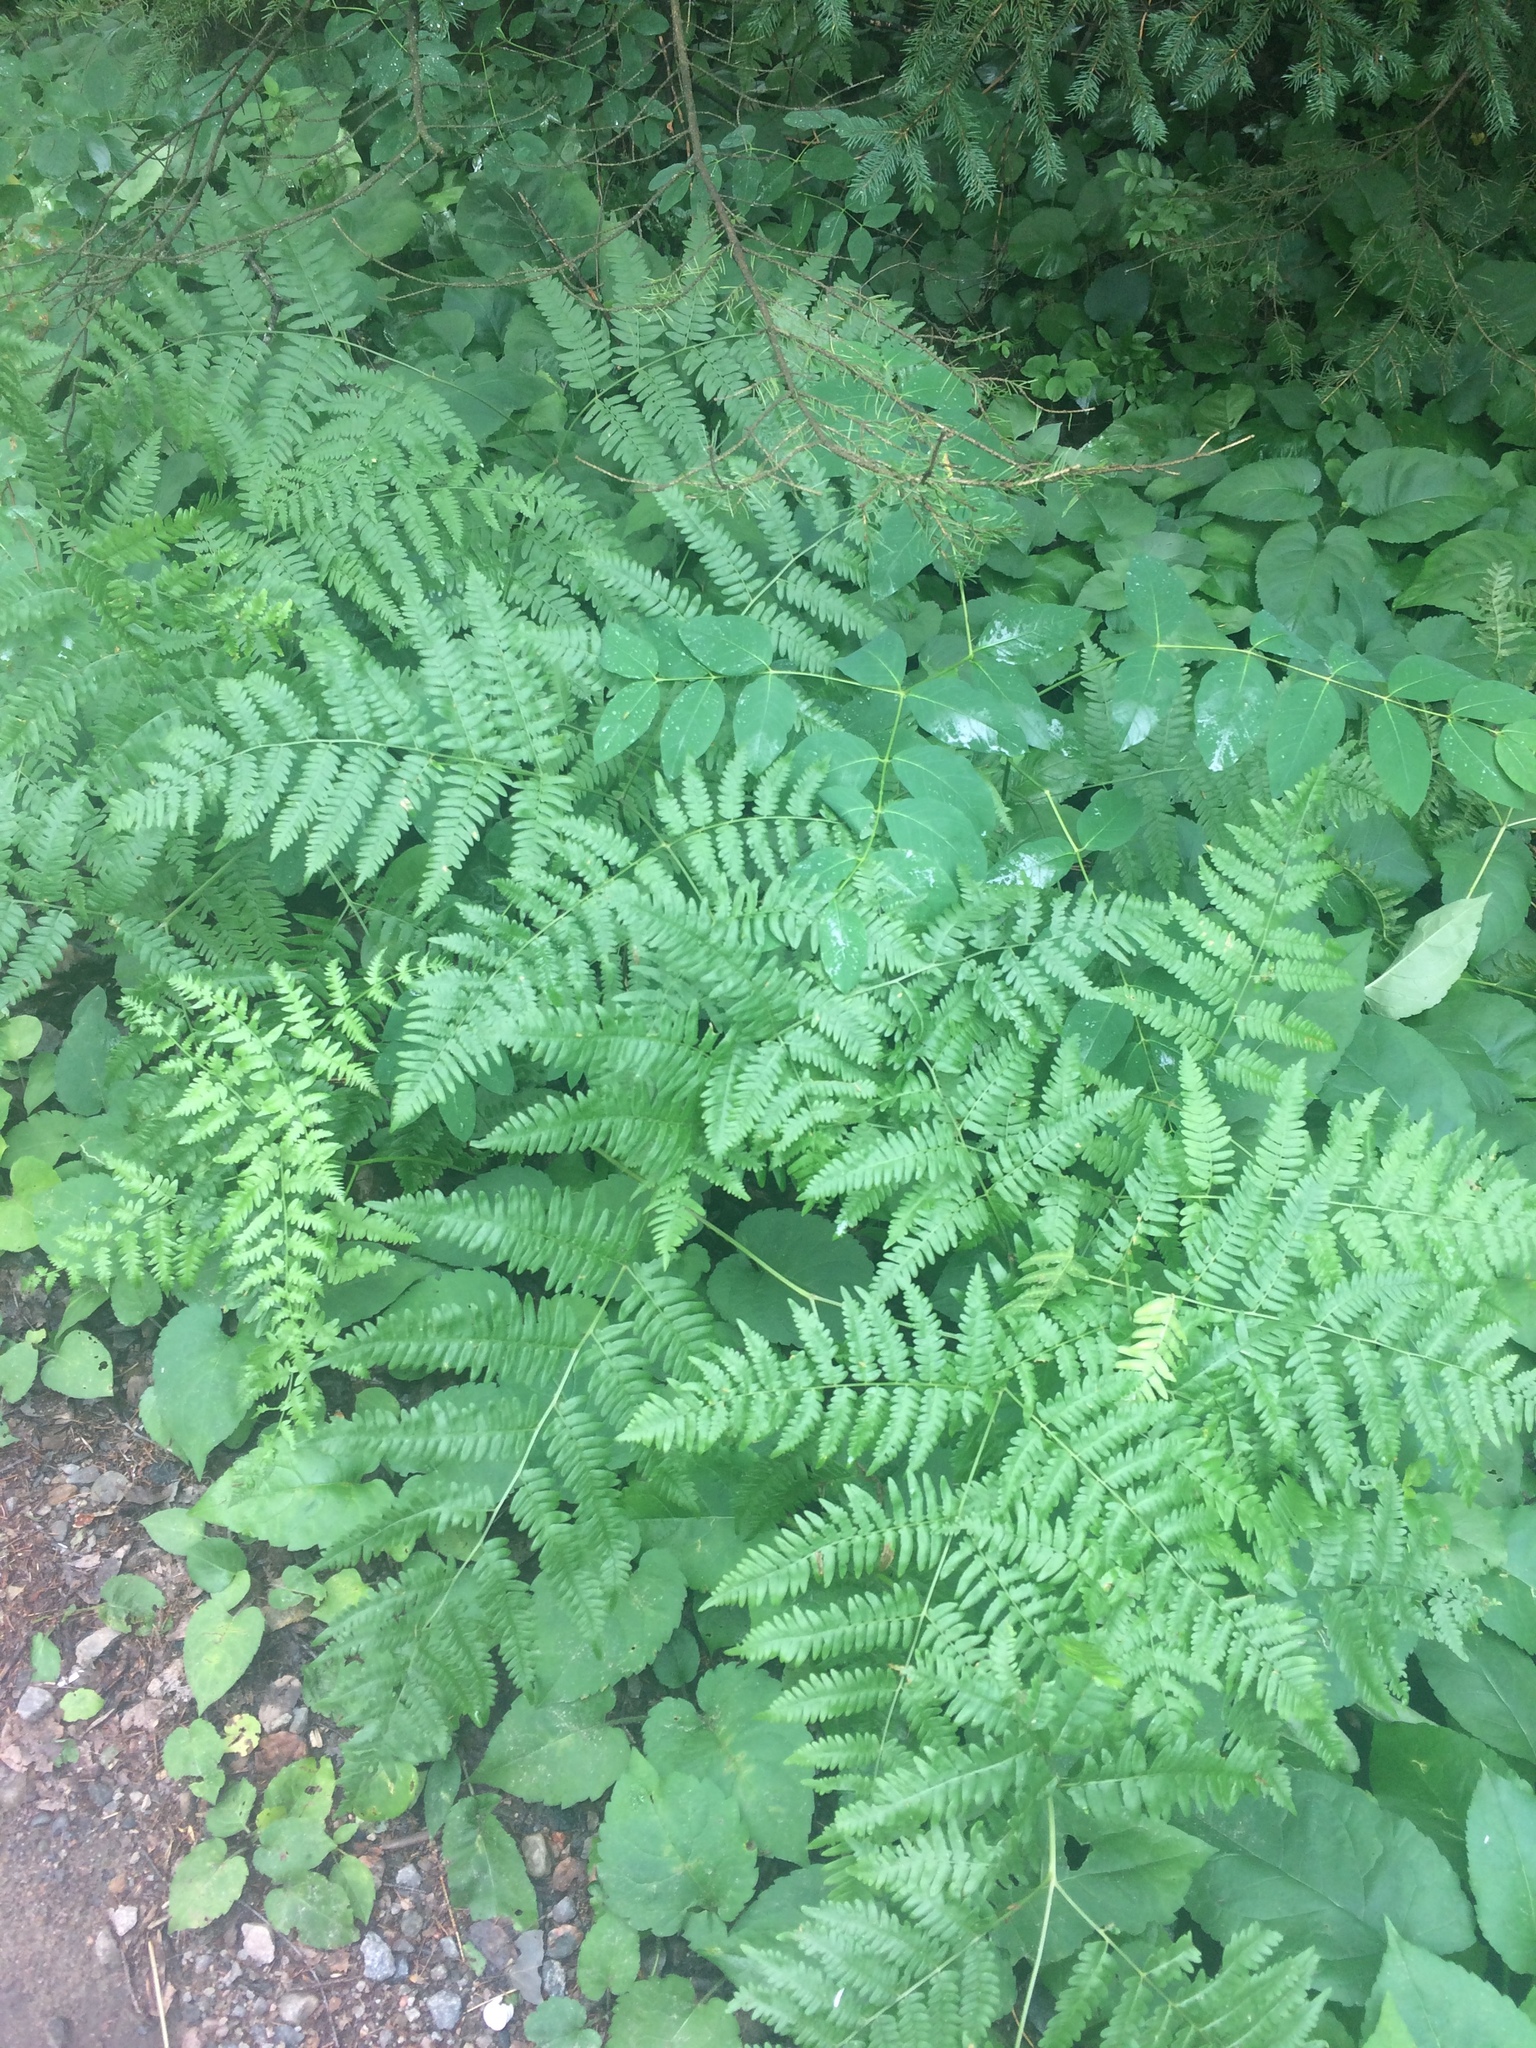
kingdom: Plantae
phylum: Tracheophyta
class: Polypodiopsida
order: Polypodiales
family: Dennstaedtiaceae
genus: Pteridium
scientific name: Pteridium aquilinum
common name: Bracken
